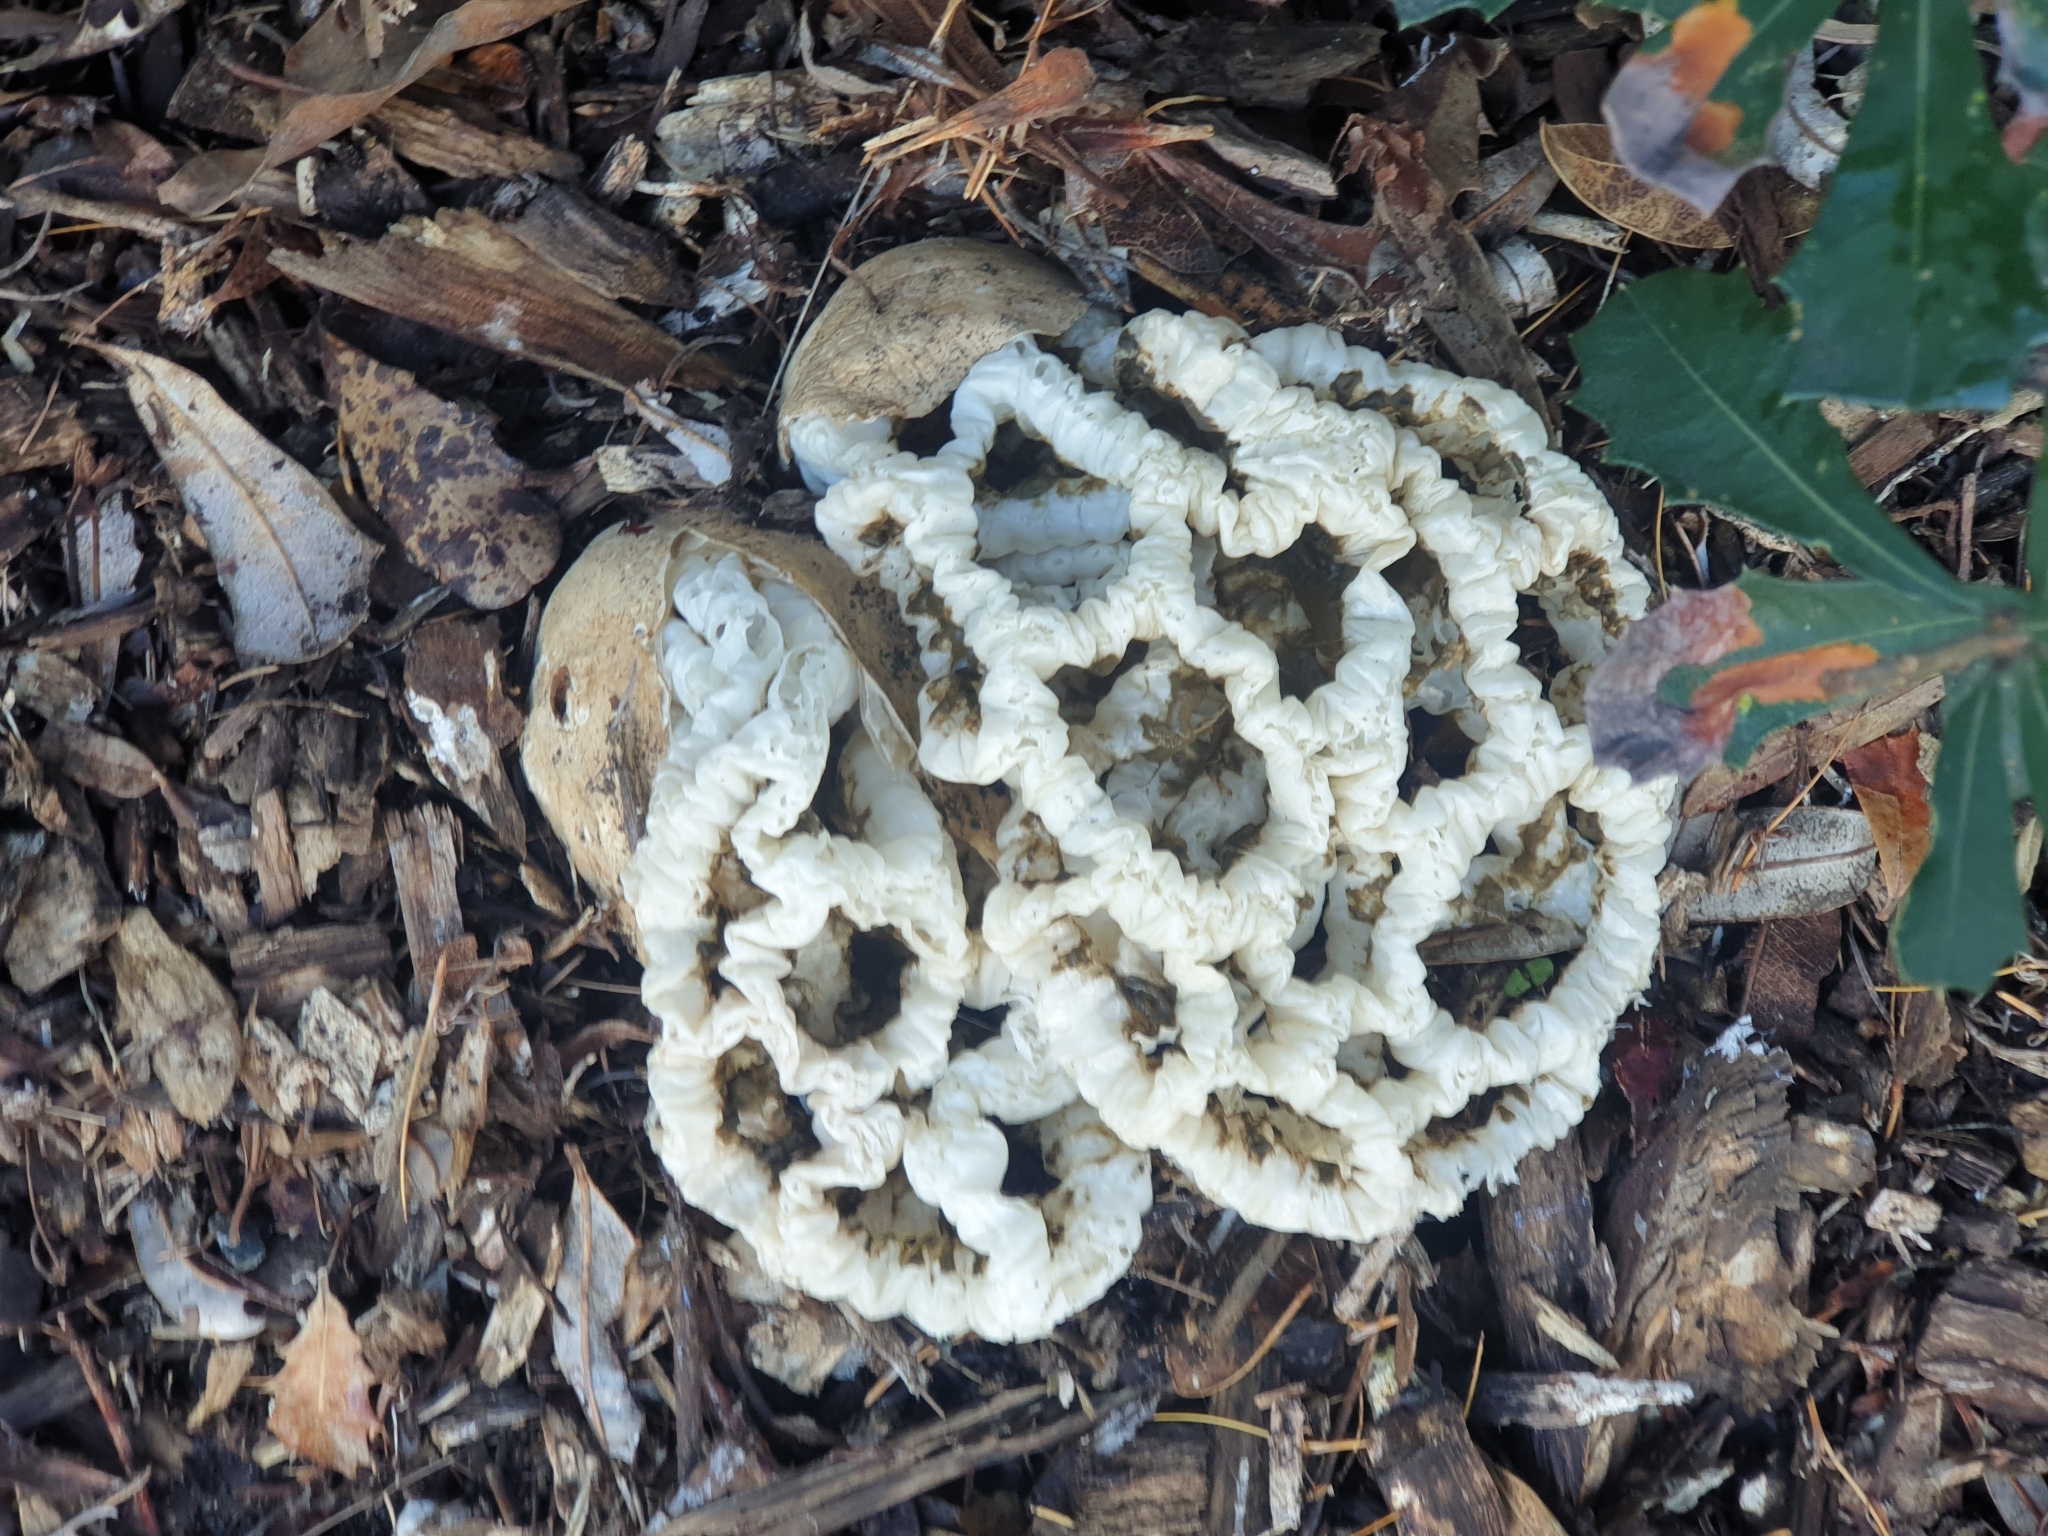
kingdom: Fungi
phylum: Basidiomycota
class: Agaricomycetes
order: Phallales
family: Phallaceae
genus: Ileodictyon
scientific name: Ileodictyon cibarium
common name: Basket fungus
